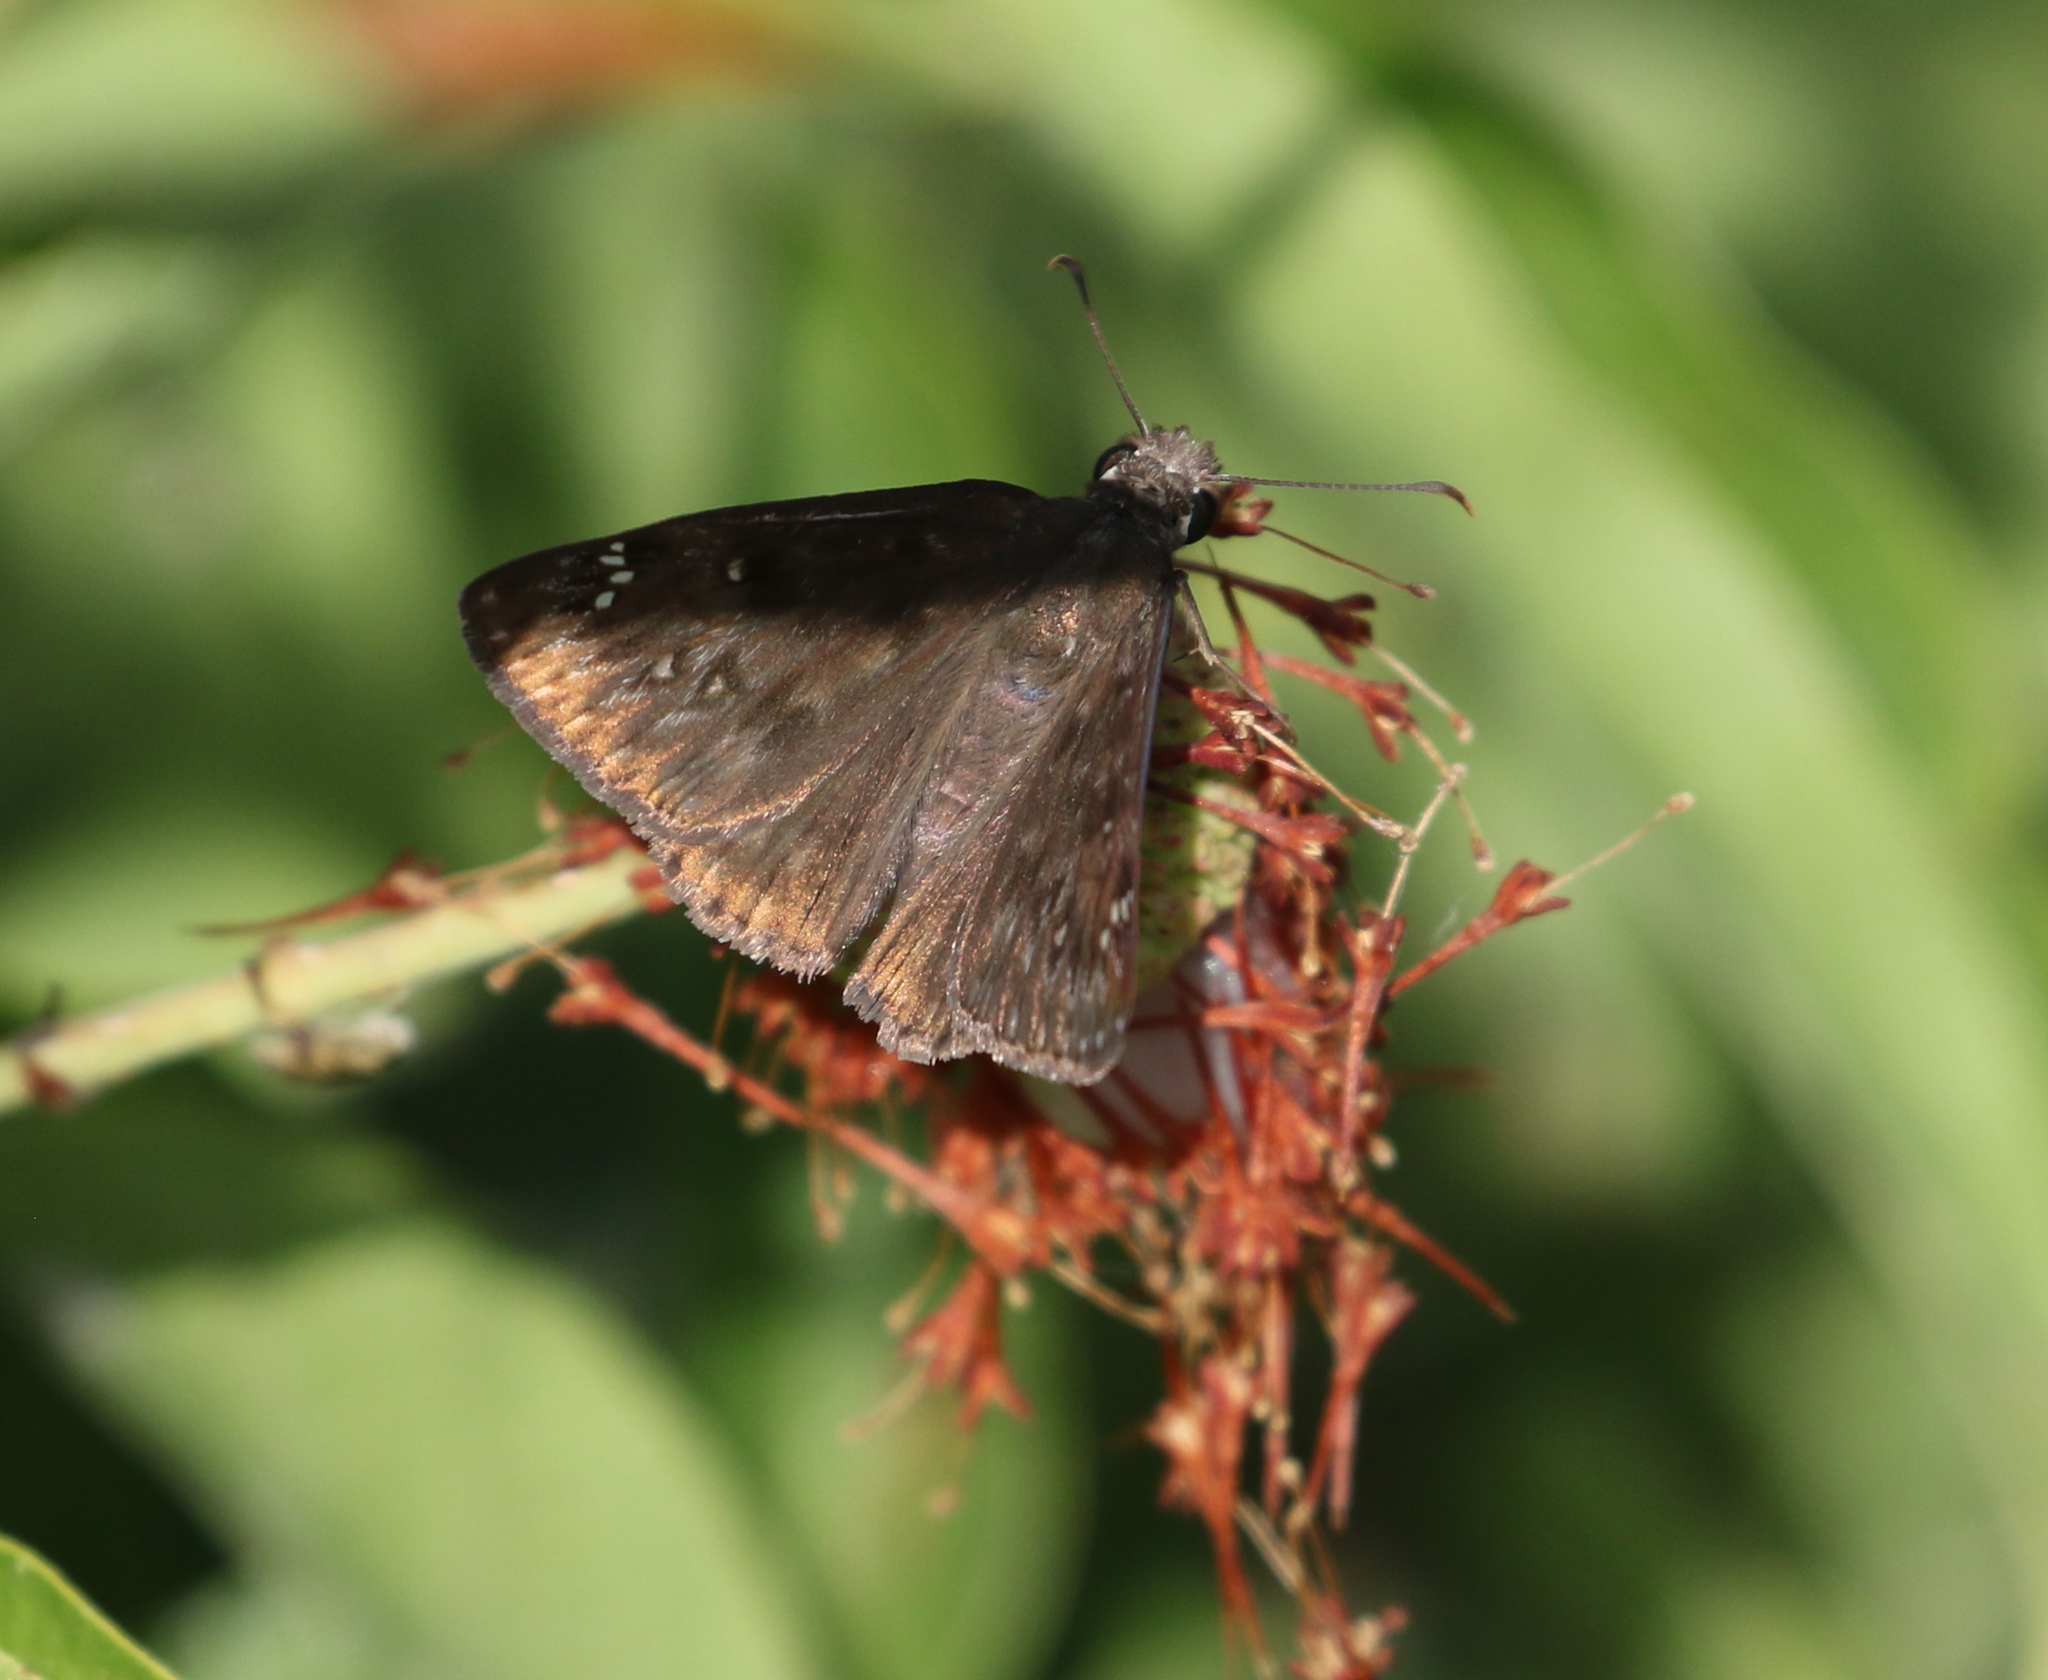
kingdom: Animalia
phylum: Arthropoda
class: Insecta
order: Lepidoptera
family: Hesperiidae
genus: Erynnis
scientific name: Erynnis horatius
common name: Horace's duskywing
